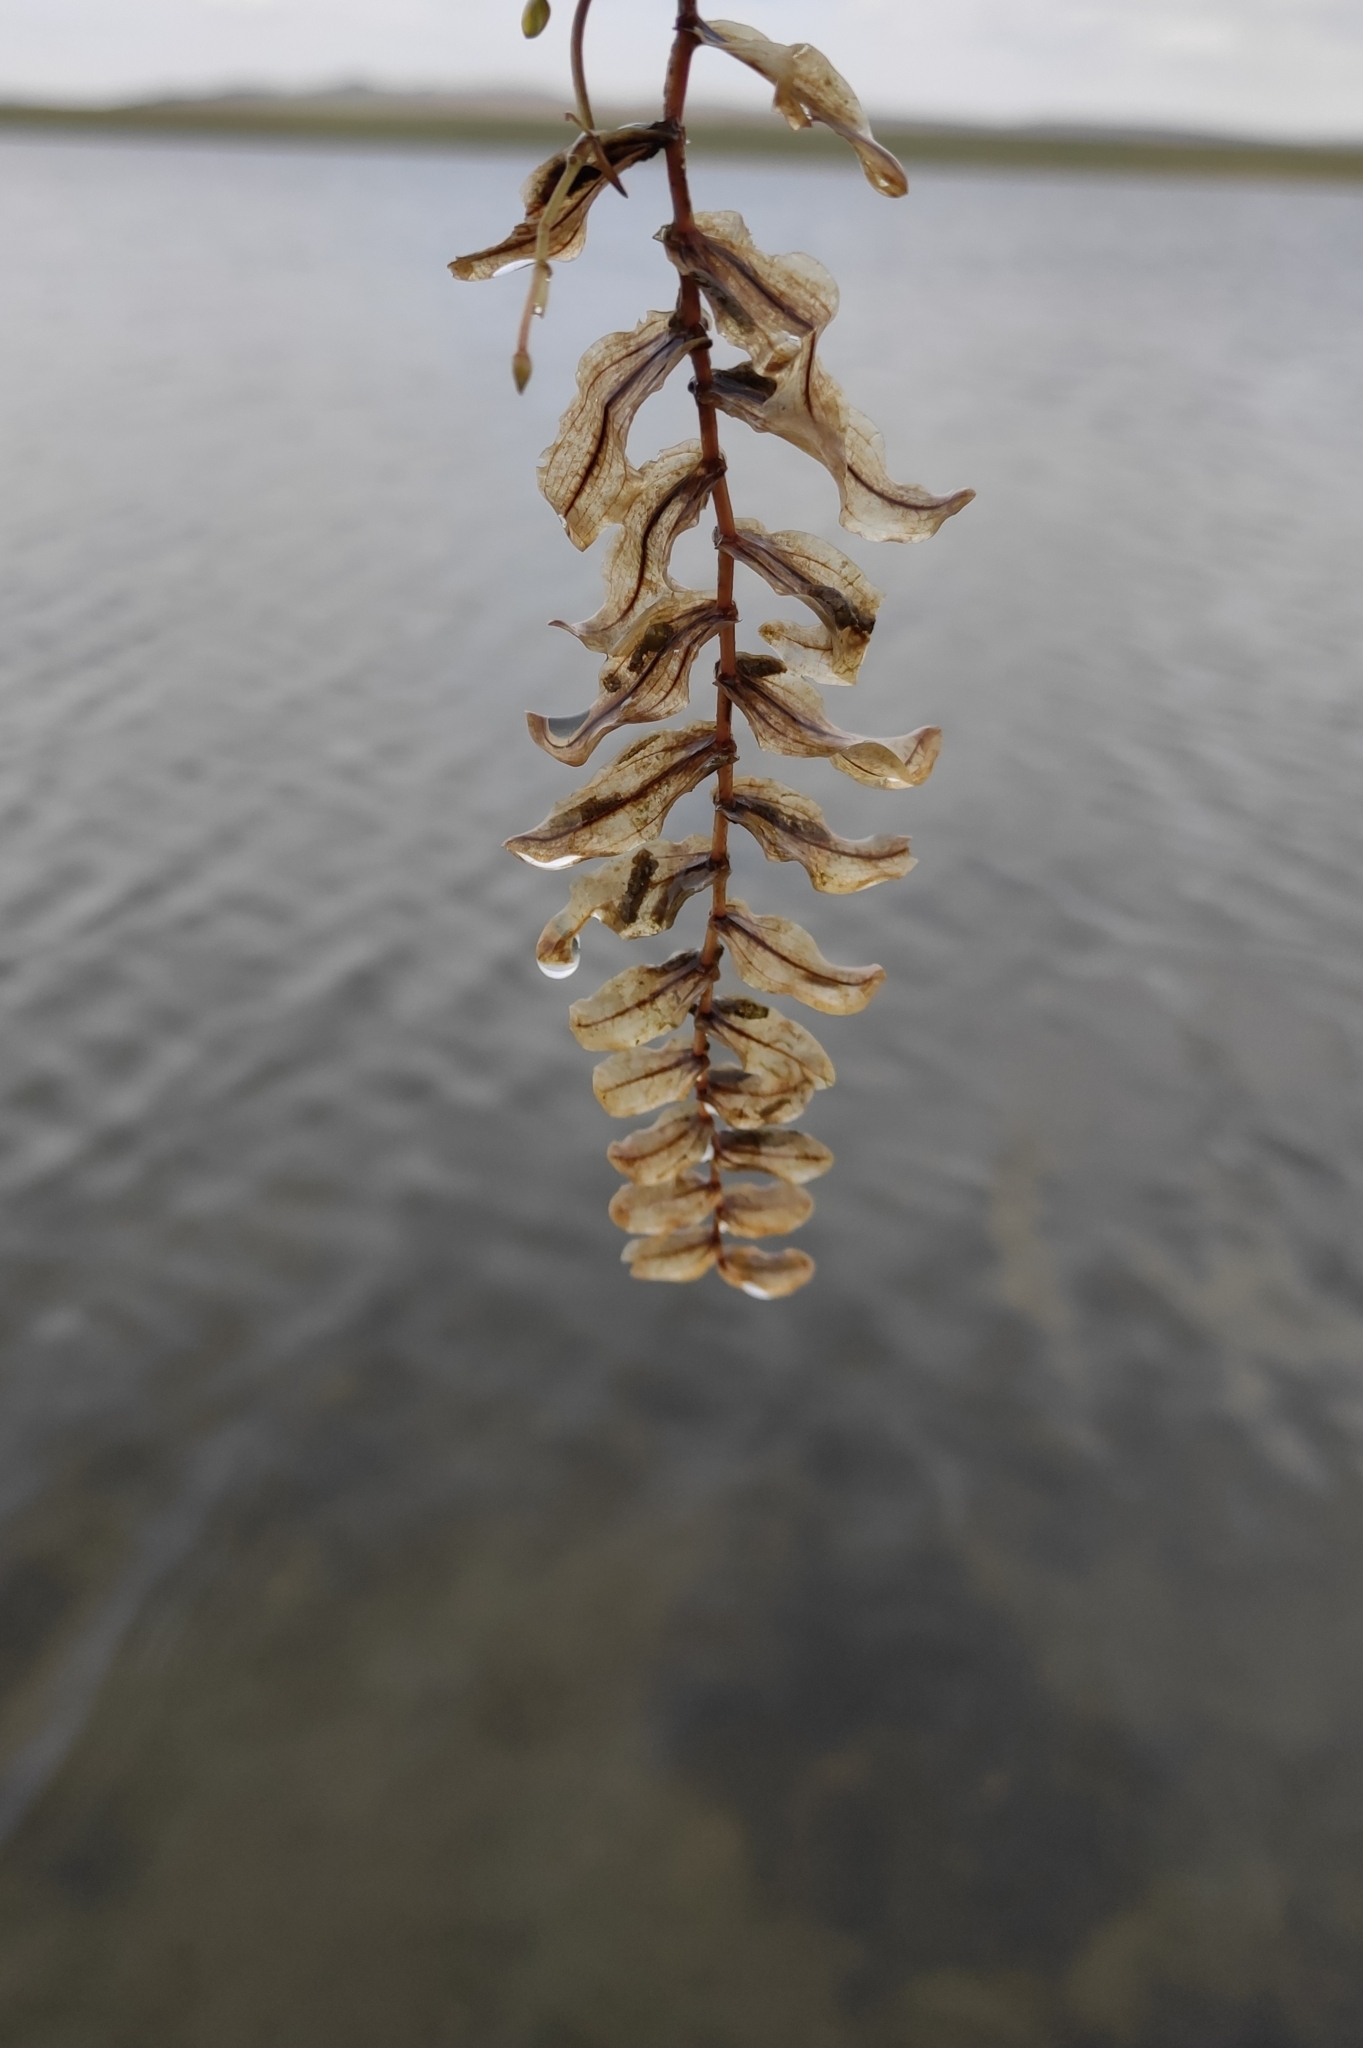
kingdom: Plantae
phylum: Tracheophyta
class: Liliopsida
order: Alismatales
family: Potamogetonaceae
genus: Potamogeton
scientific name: Potamogeton perfoliatus
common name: Perfoliate pondweed
